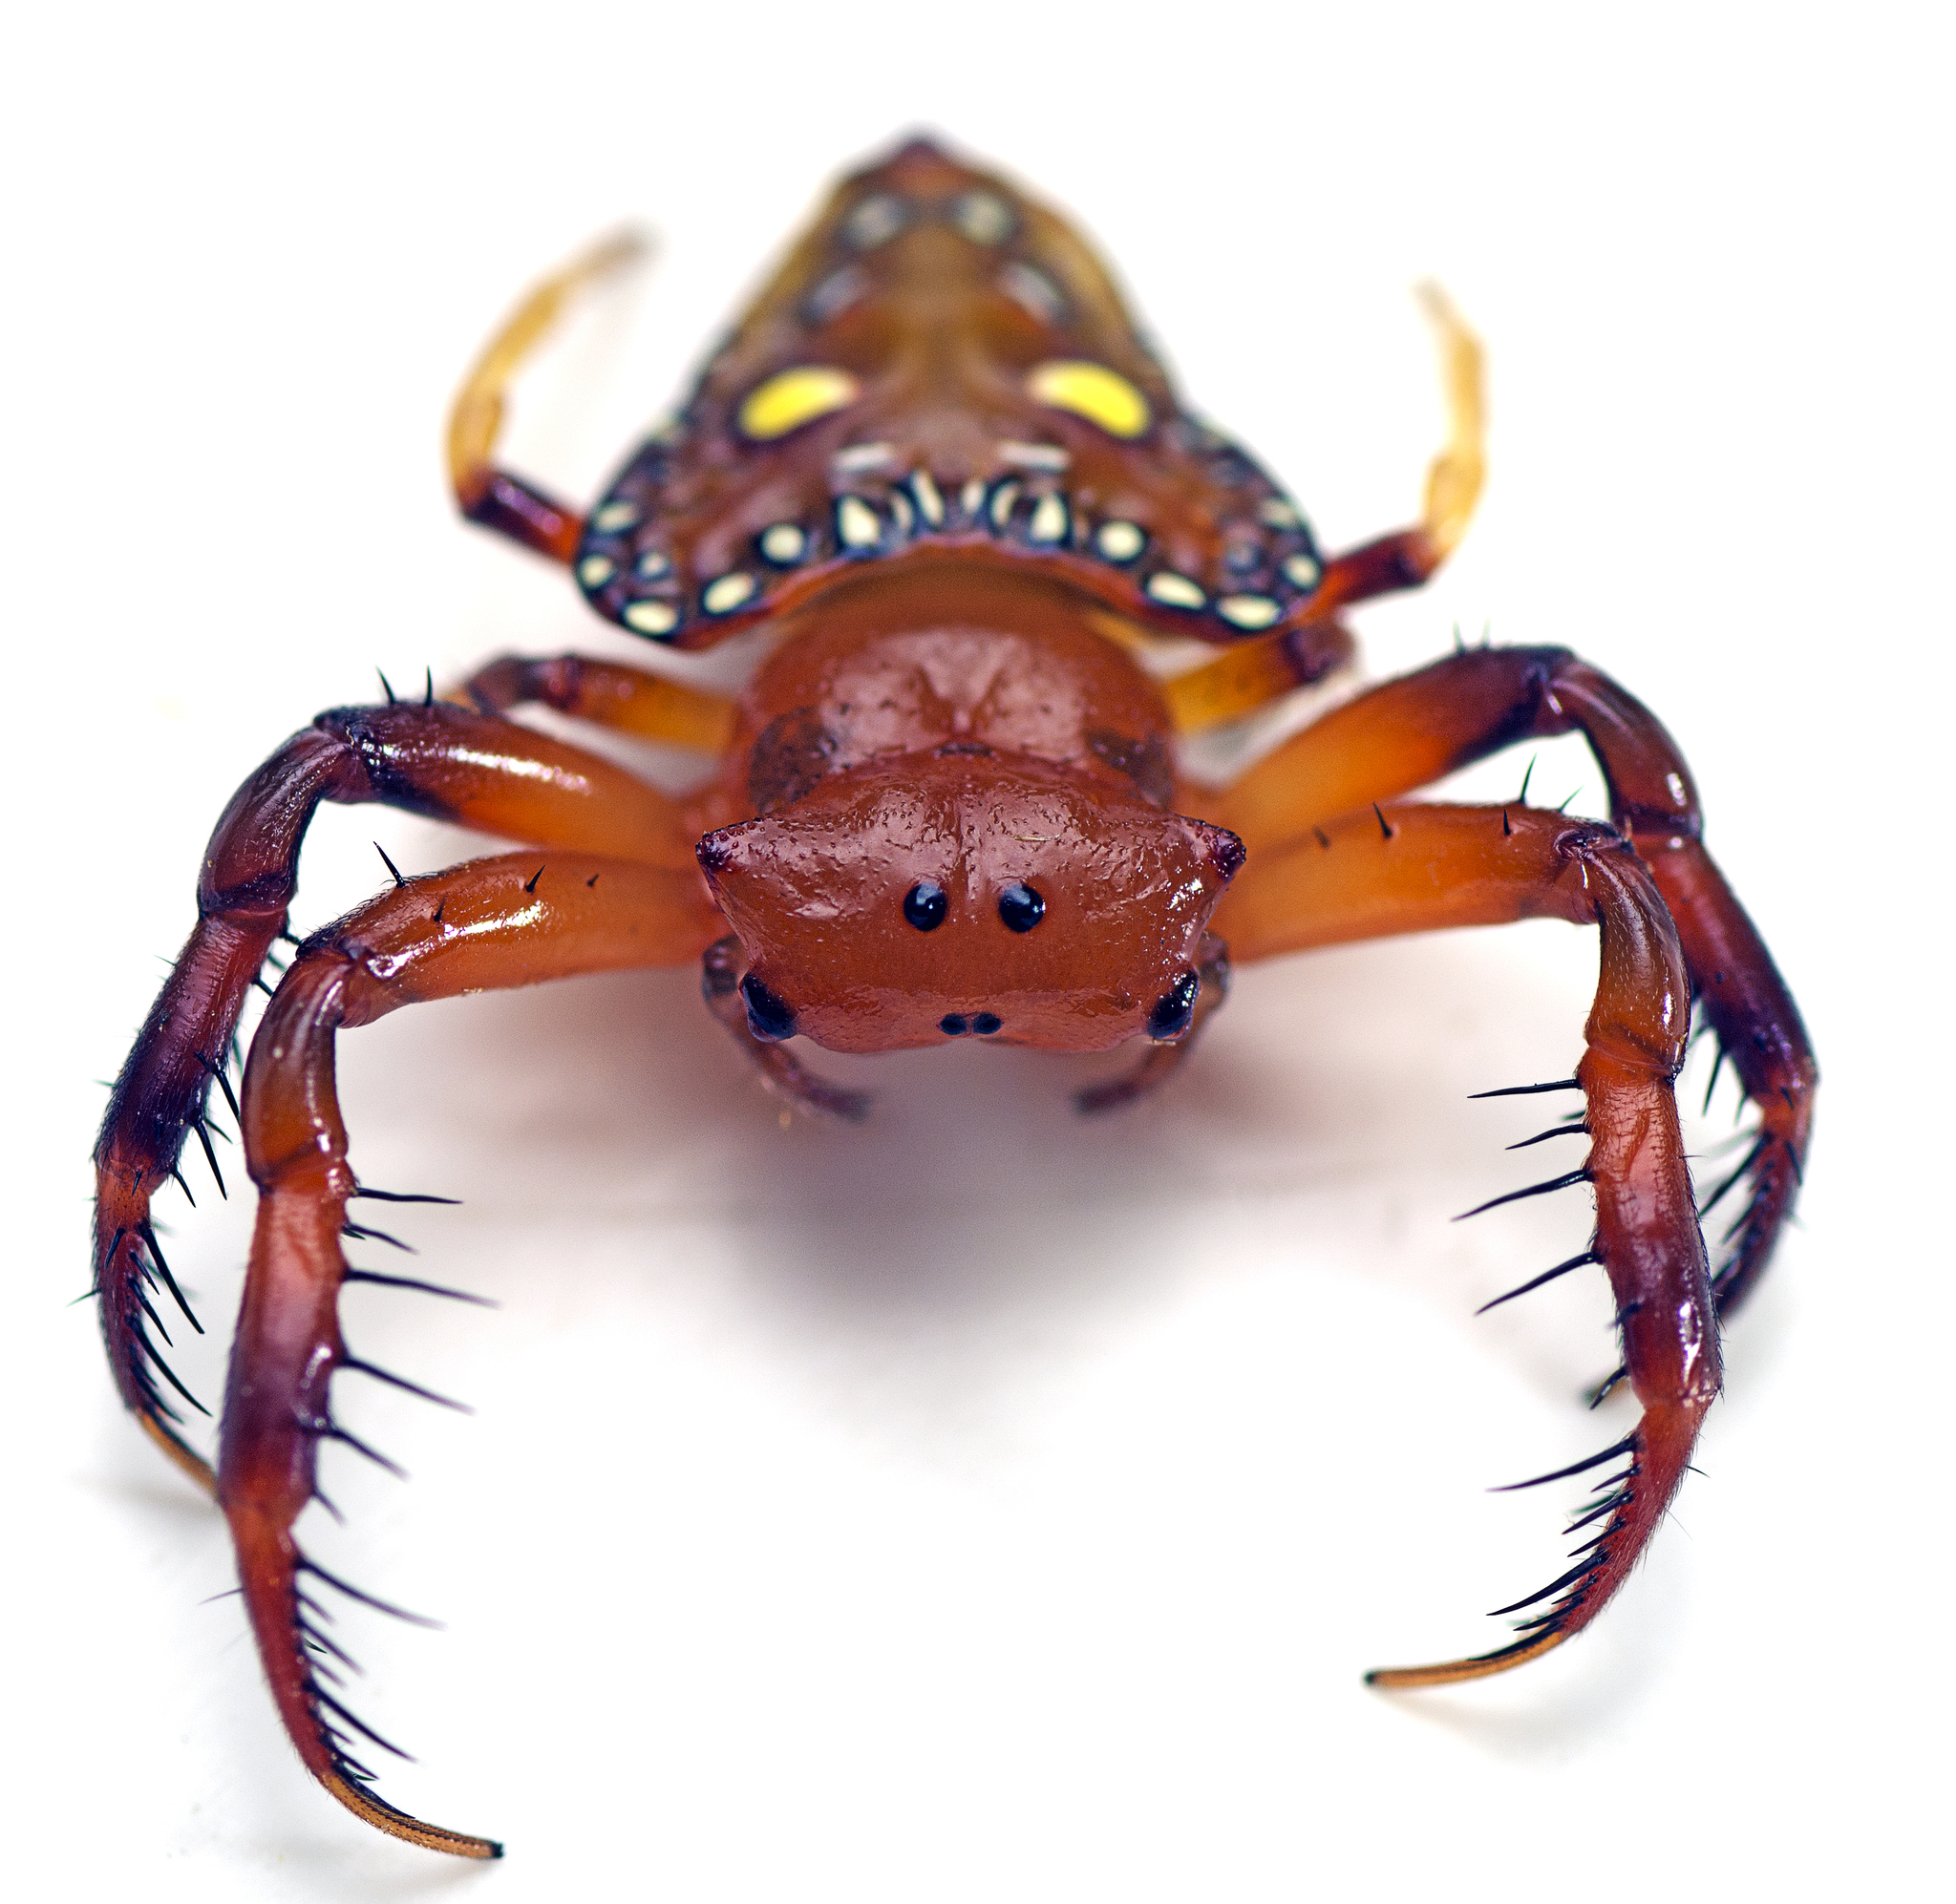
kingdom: Animalia
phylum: Arthropoda
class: Arachnida
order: Araneae
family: Arkyidae
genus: Arkys
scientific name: Arkys lancearius
